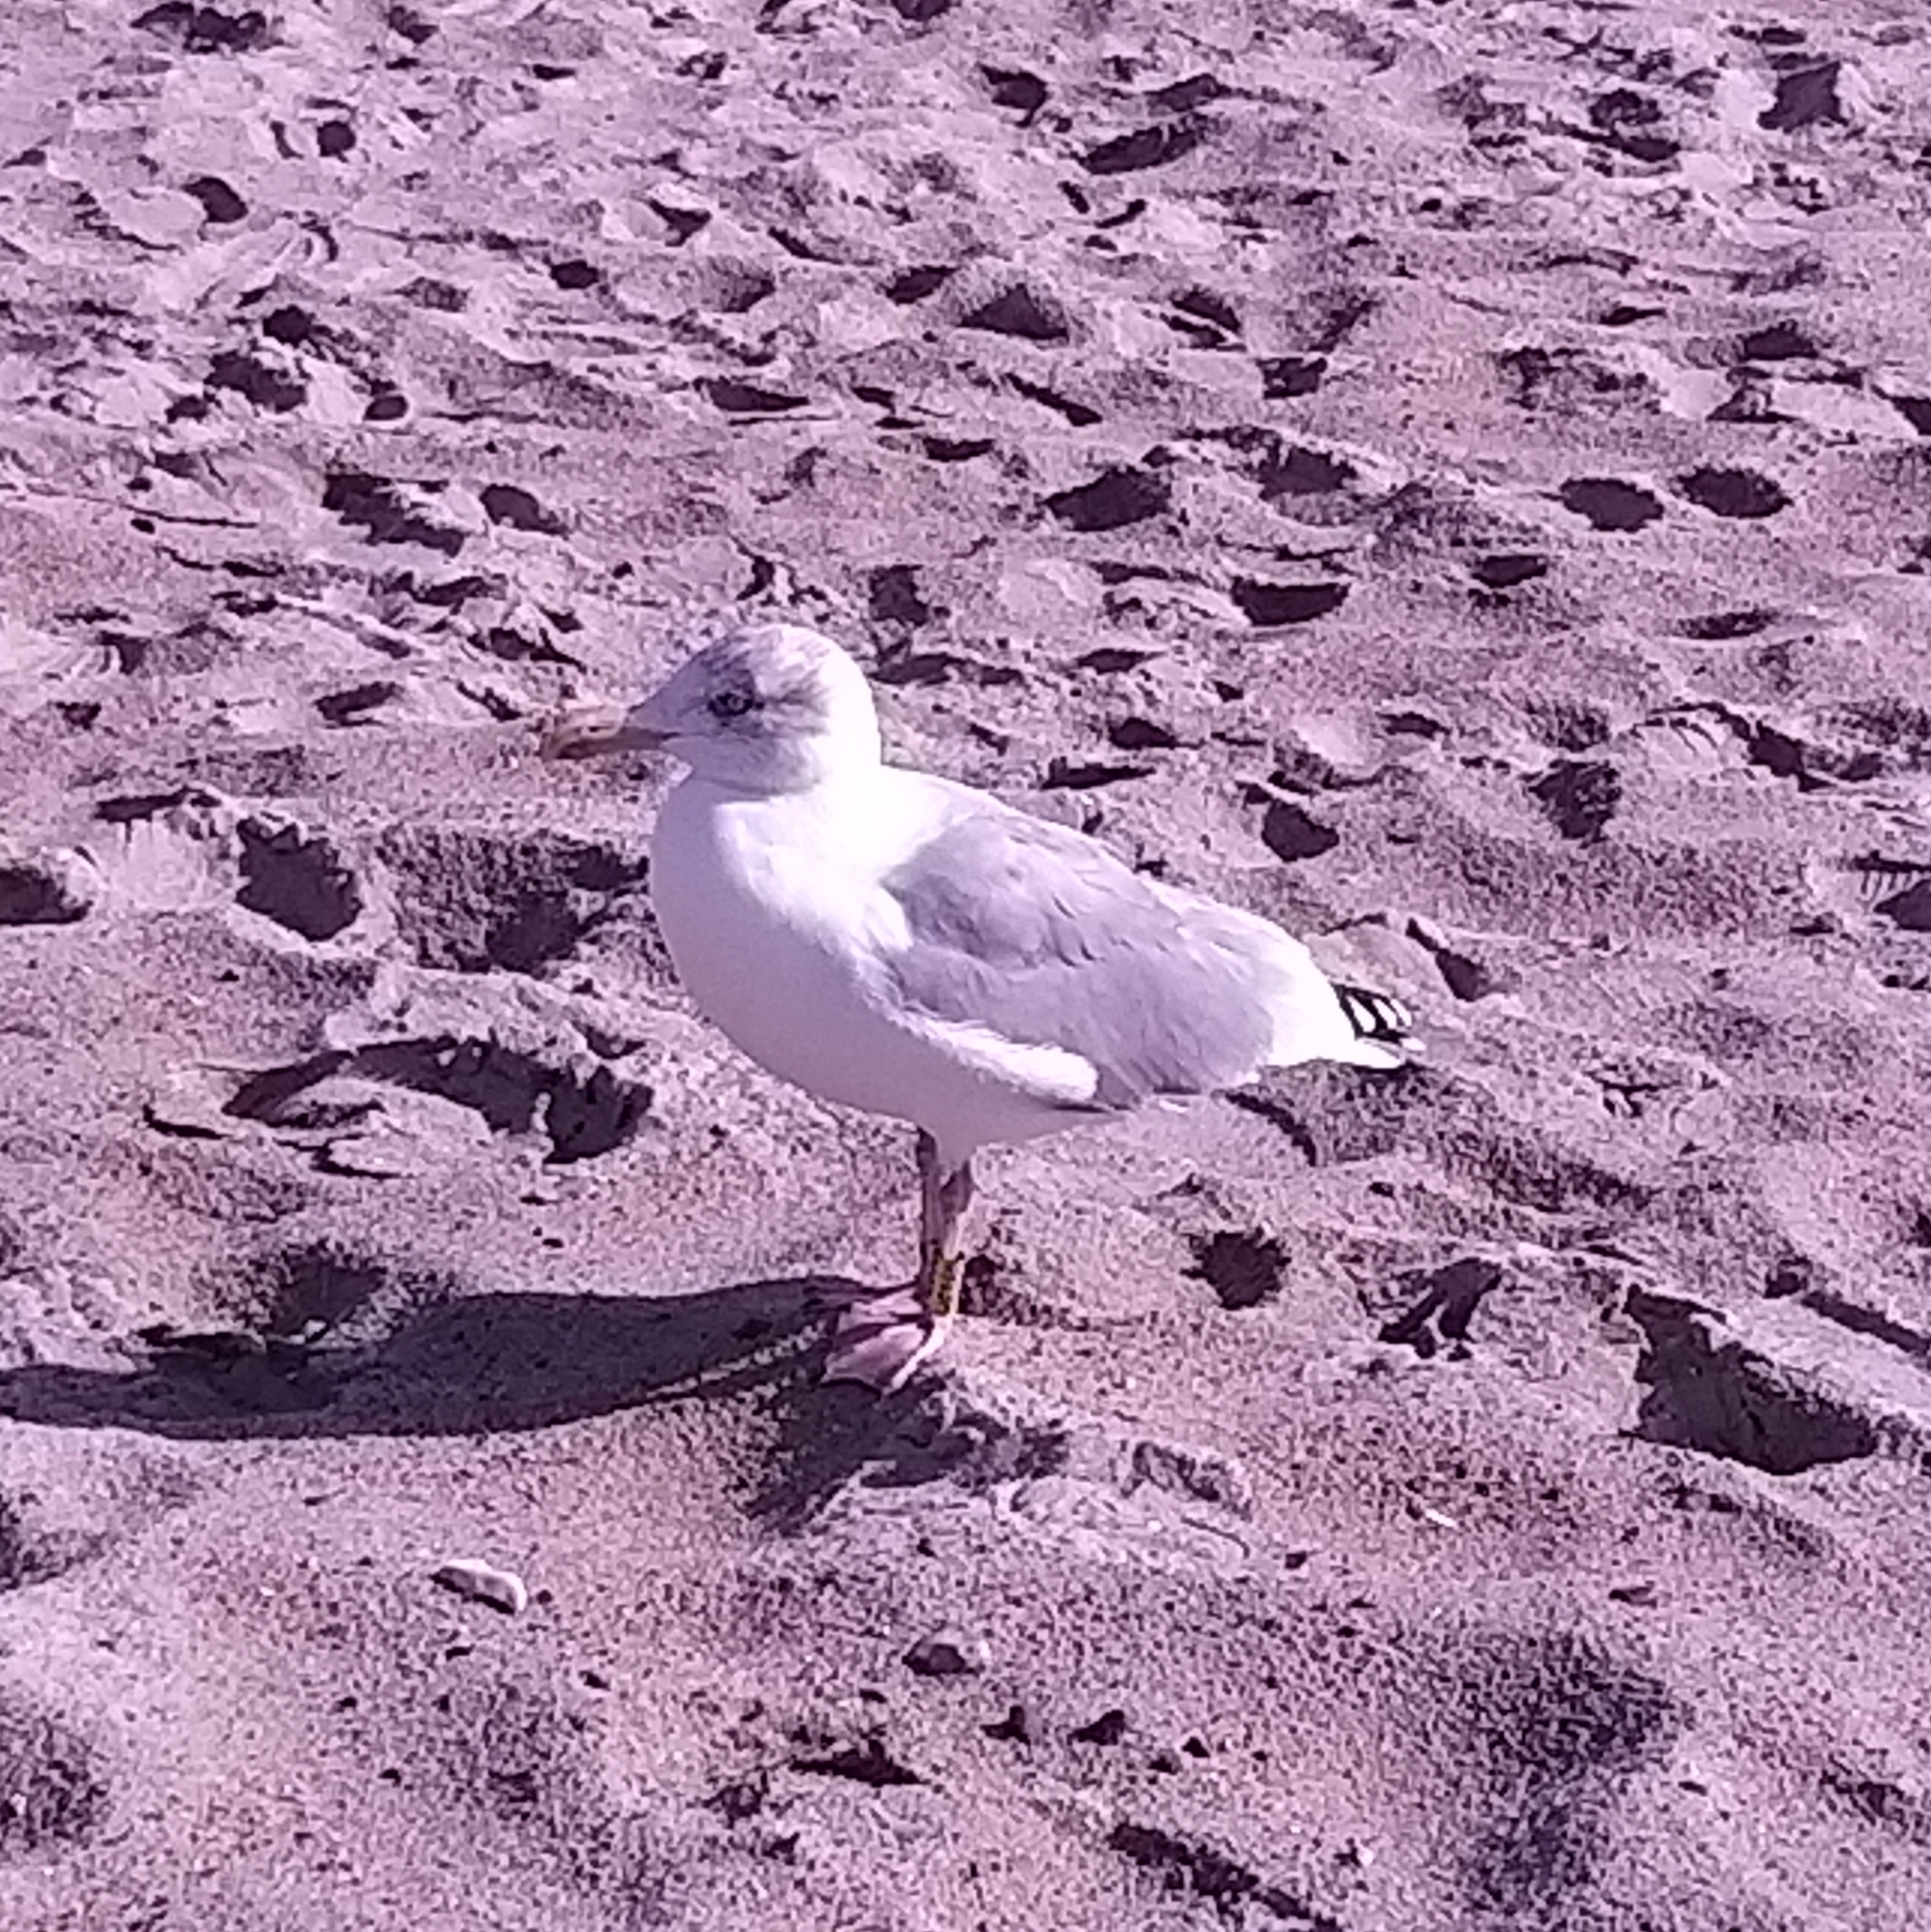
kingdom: Animalia
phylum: Chordata
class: Aves
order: Charadriiformes
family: Laridae
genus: Larus
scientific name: Larus argentatus
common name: Herring gull
